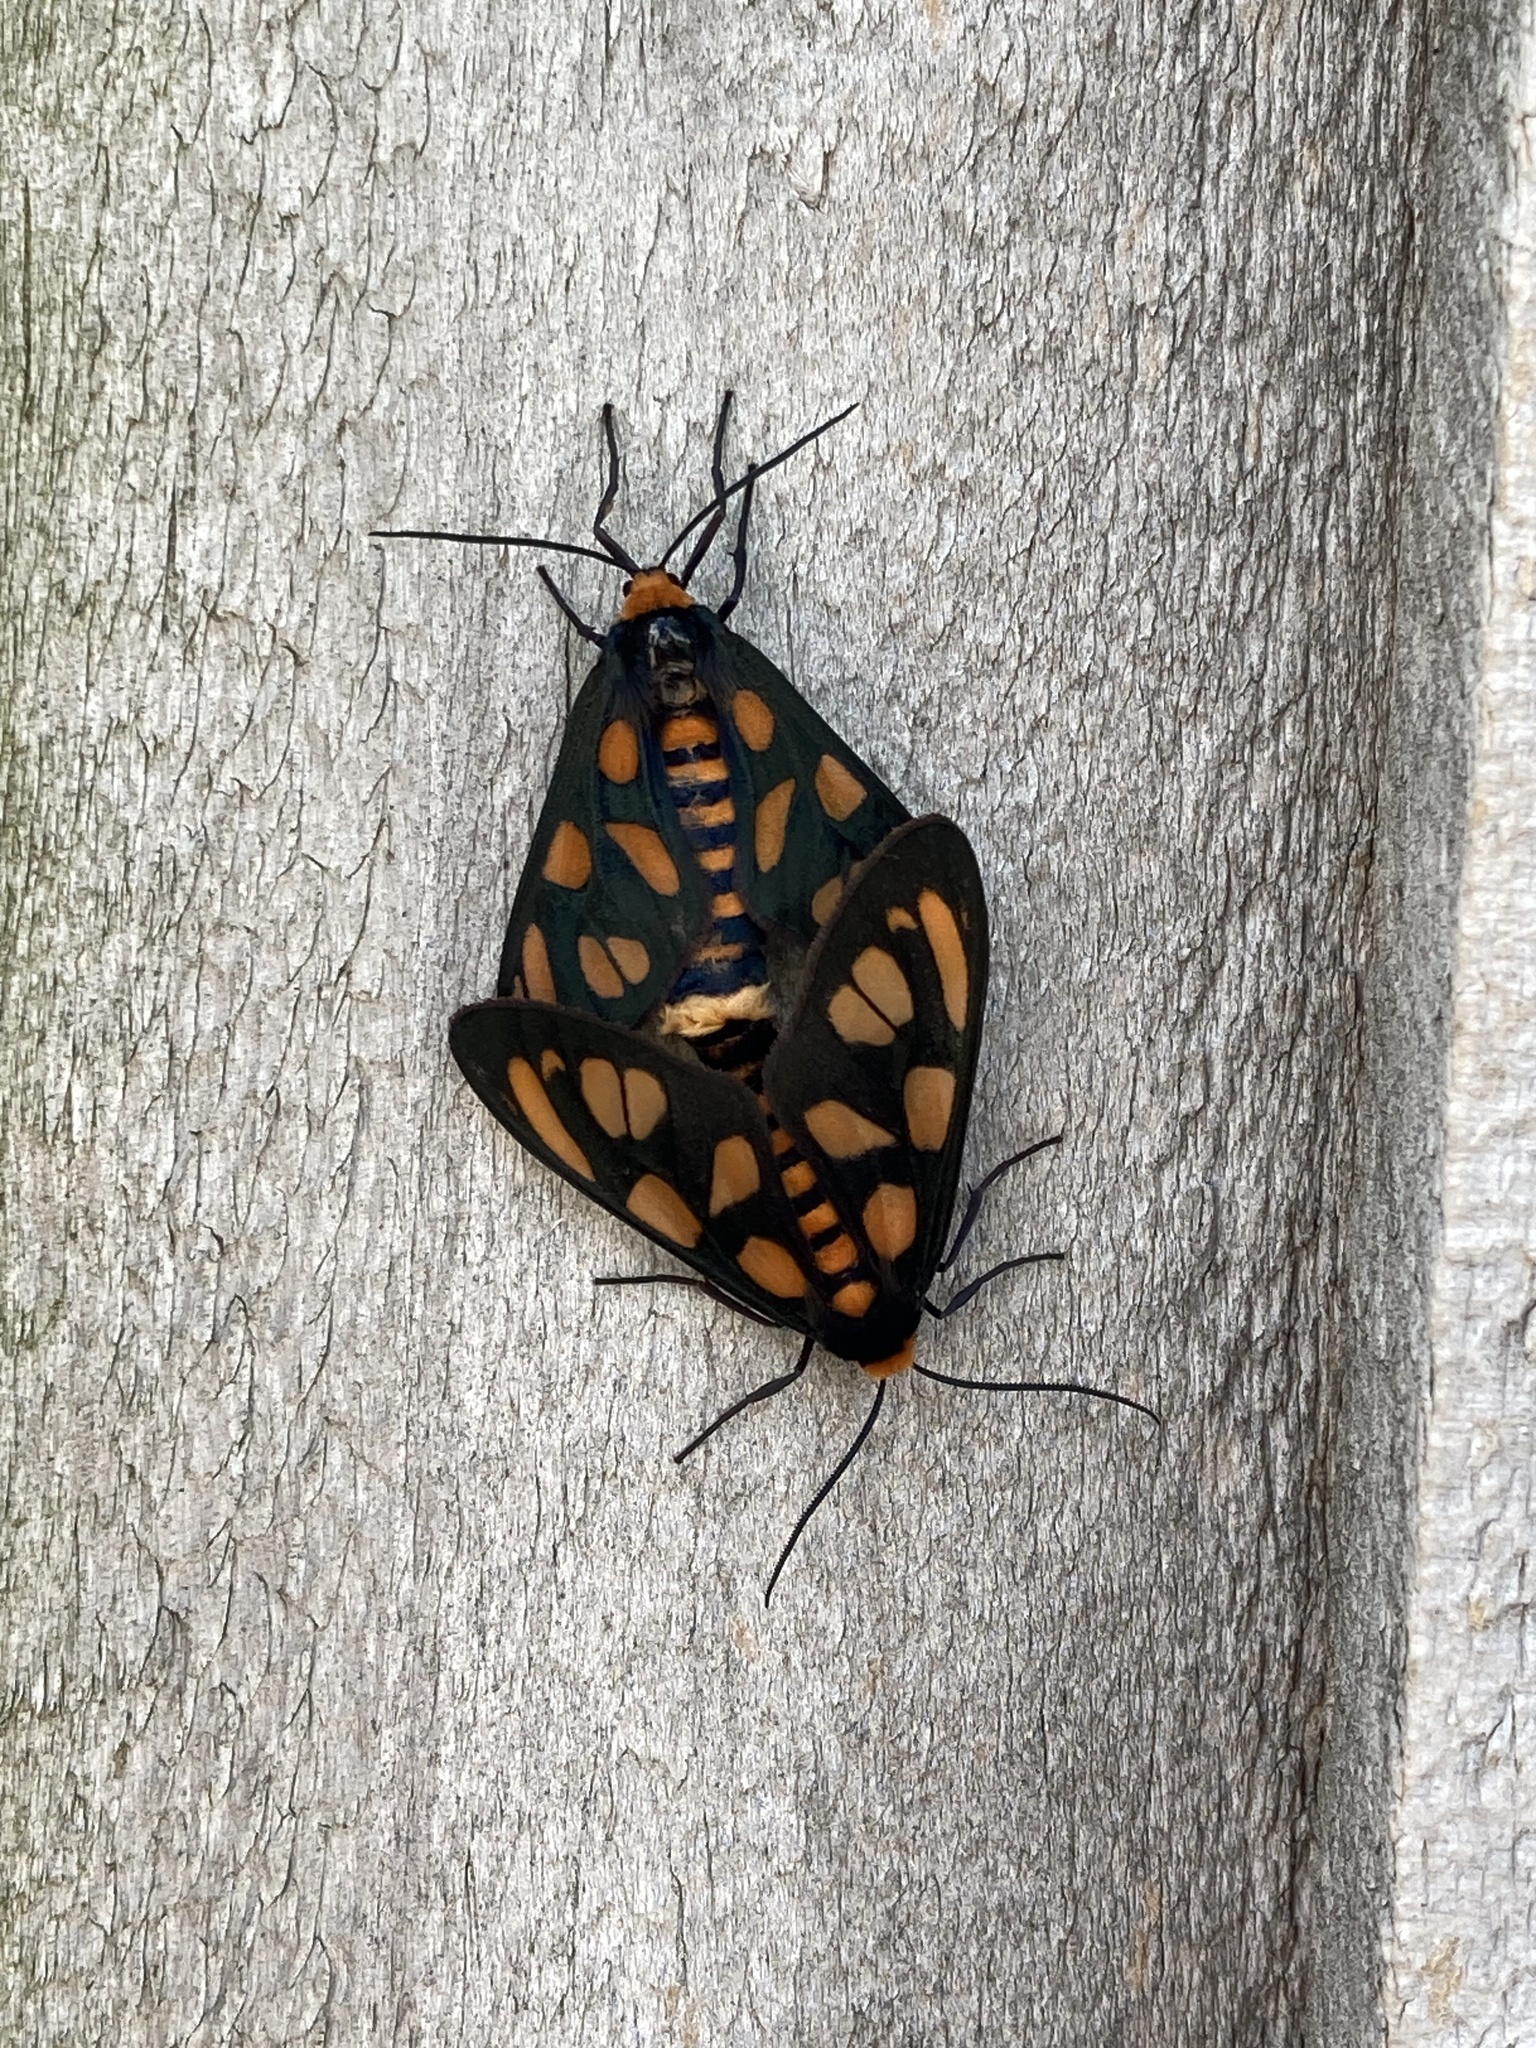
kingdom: Animalia
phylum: Arthropoda
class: Insecta
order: Lepidoptera
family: Erebidae
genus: Amata
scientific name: Amata aperta
